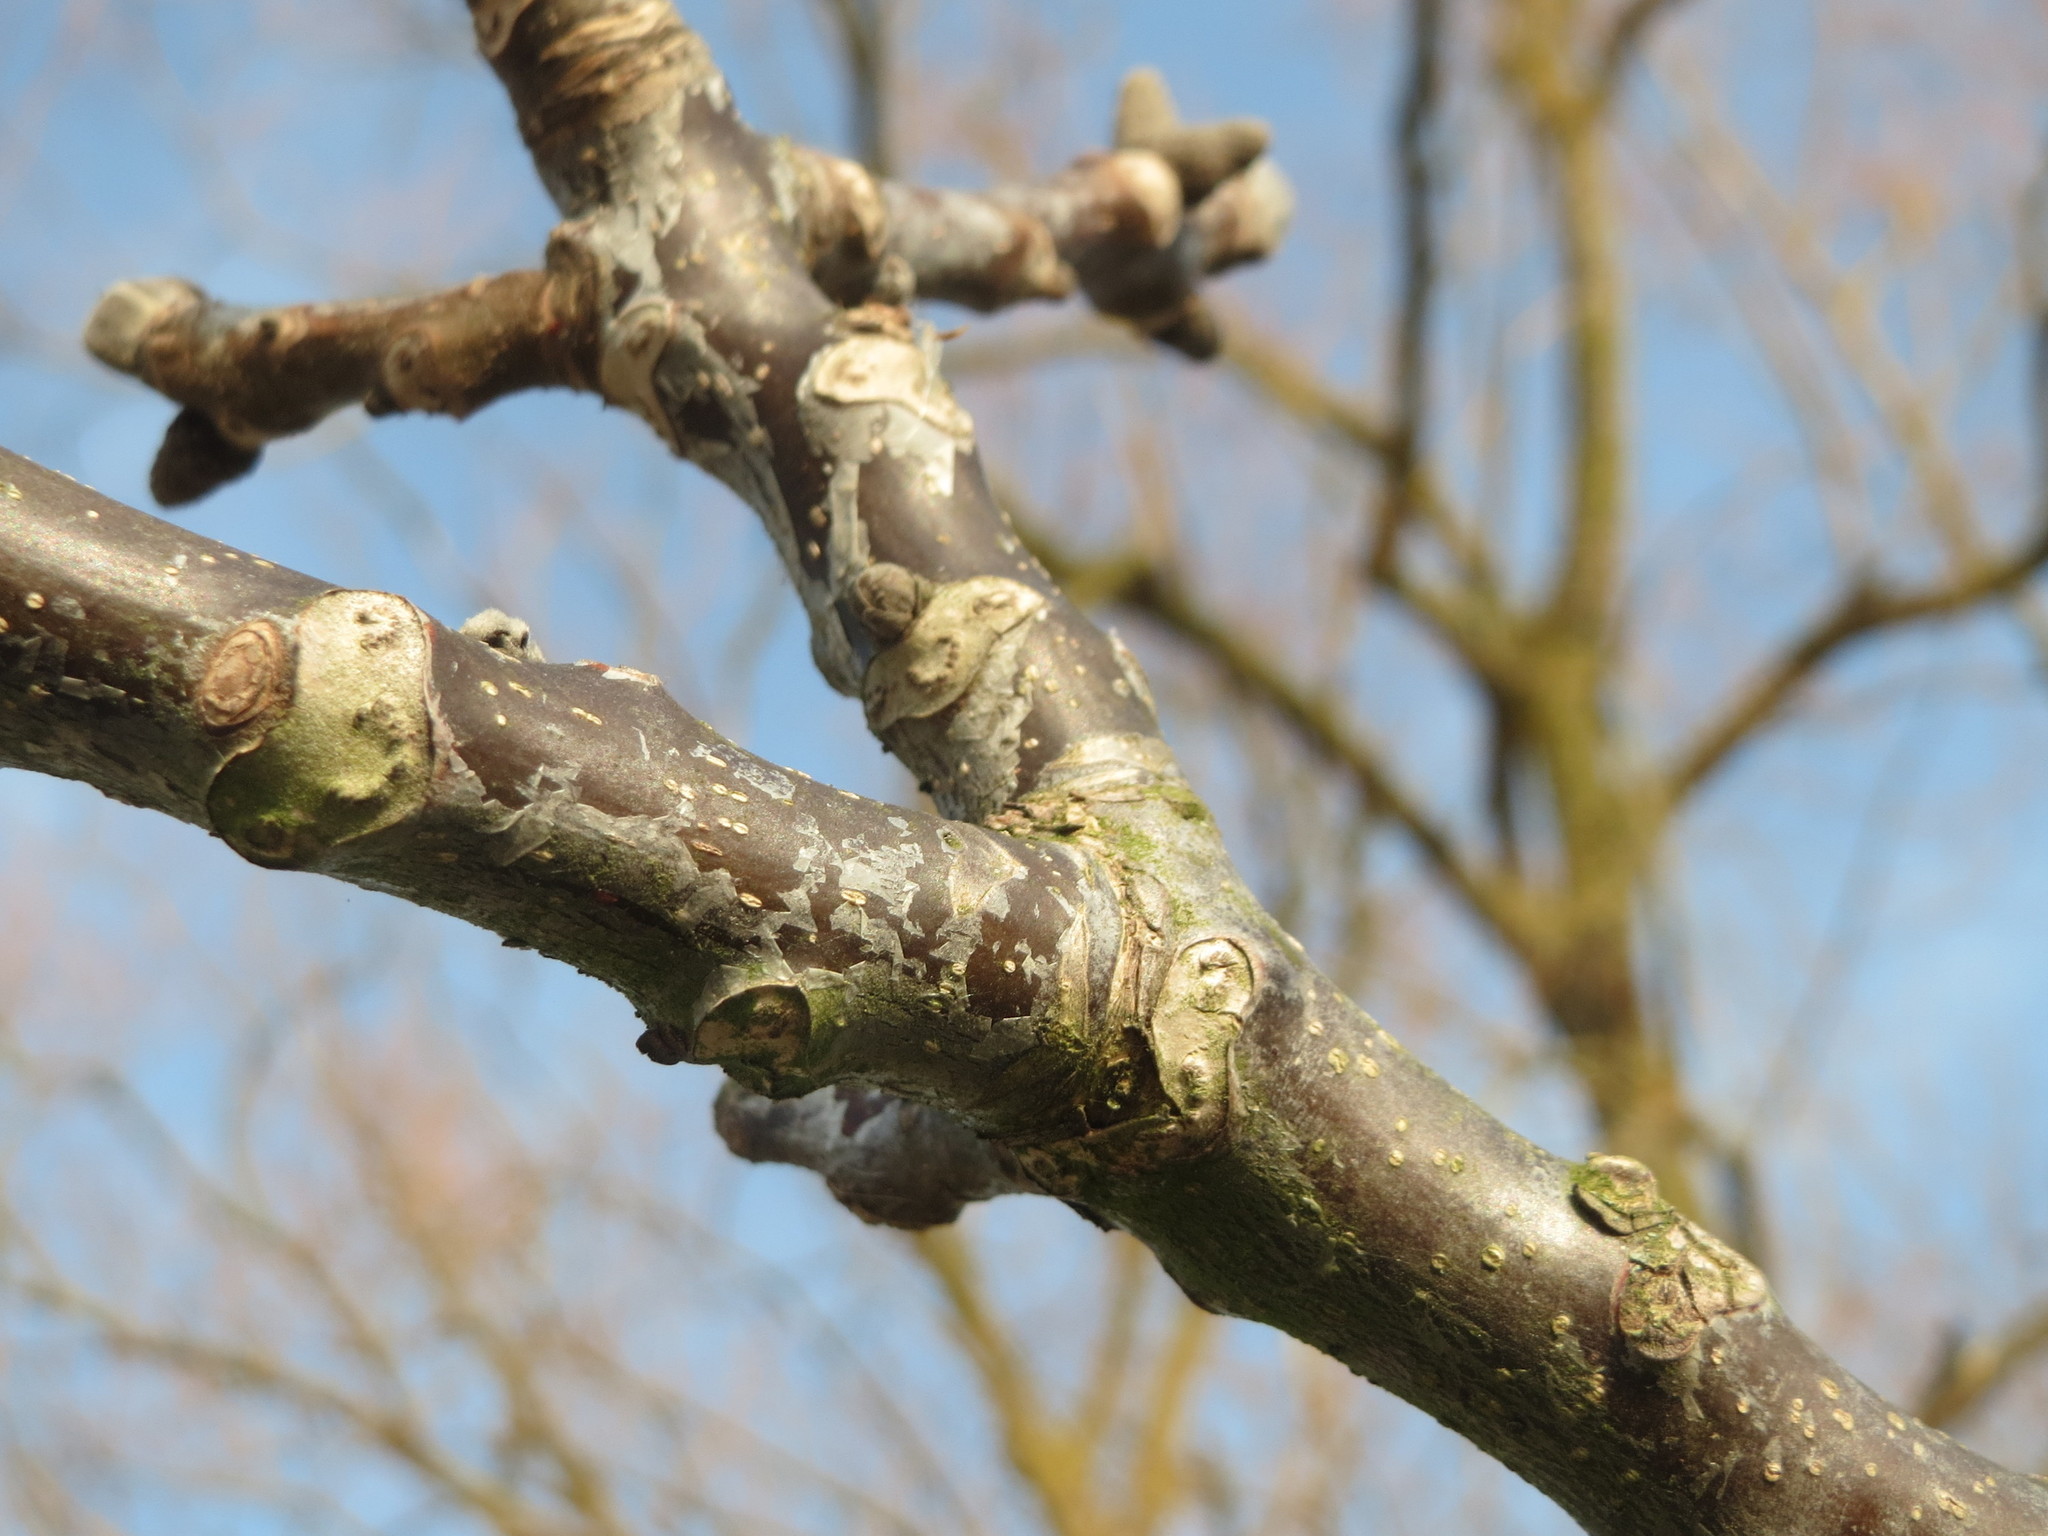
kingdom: Plantae
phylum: Tracheophyta
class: Magnoliopsida
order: Fagales
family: Juglandaceae
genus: Juglans
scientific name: Juglans regia
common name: Walnut
